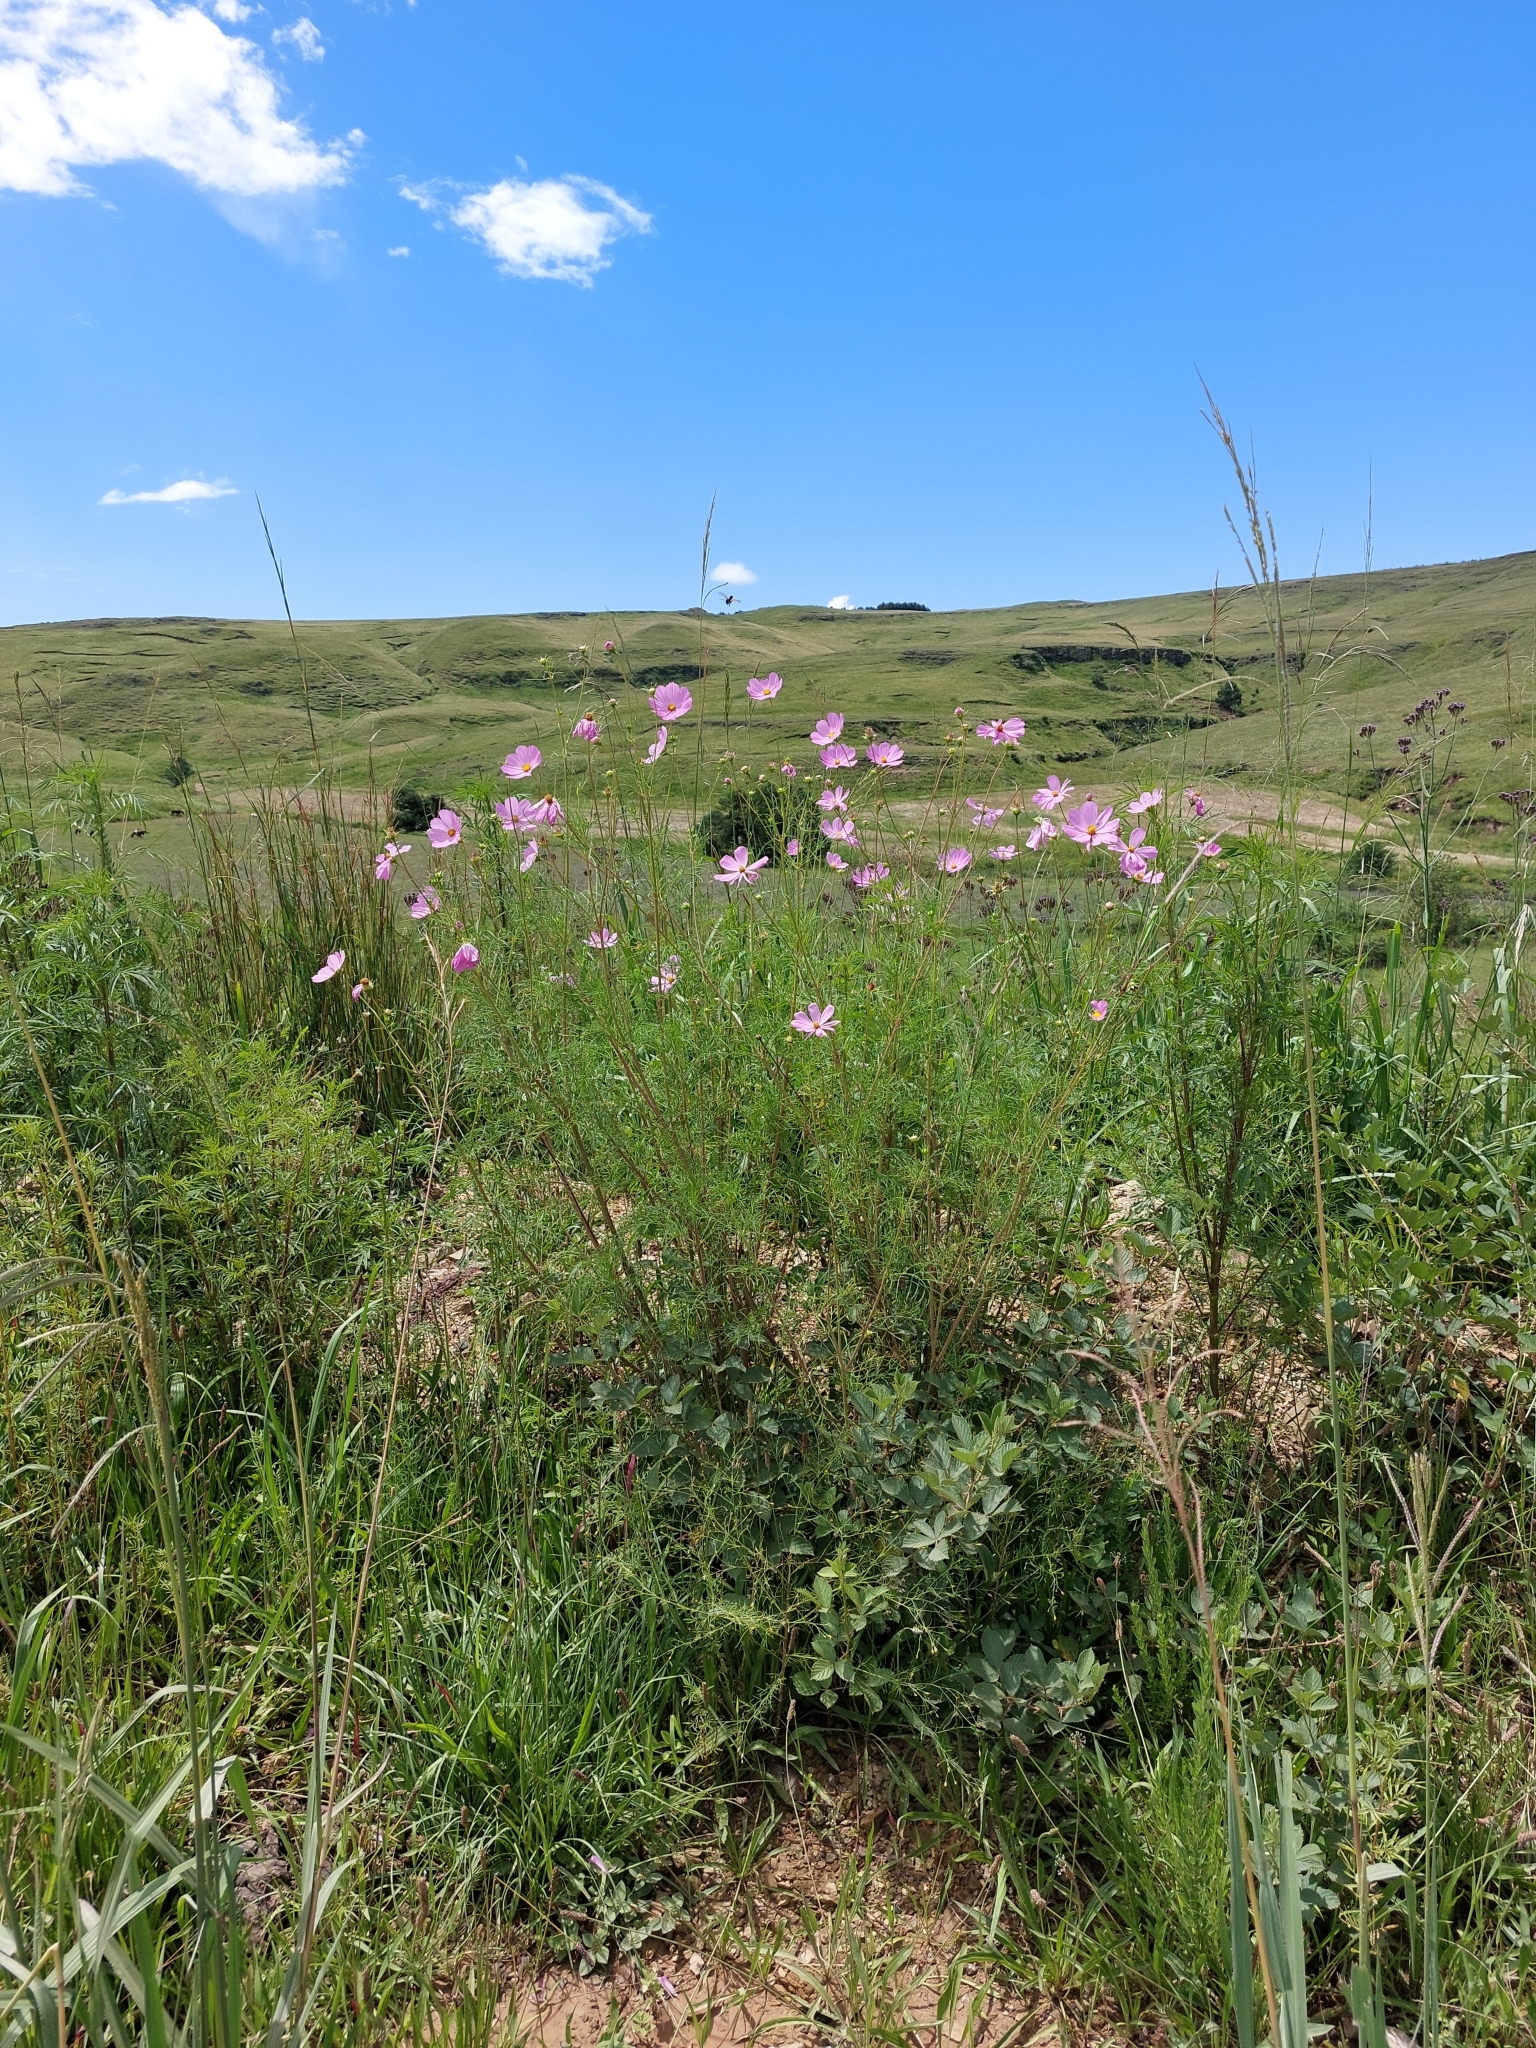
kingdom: Plantae
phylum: Tracheophyta
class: Magnoliopsida
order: Asterales
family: Asteraceae
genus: Cosmos
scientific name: Cosmos bipinnatus
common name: Garden cosmos
